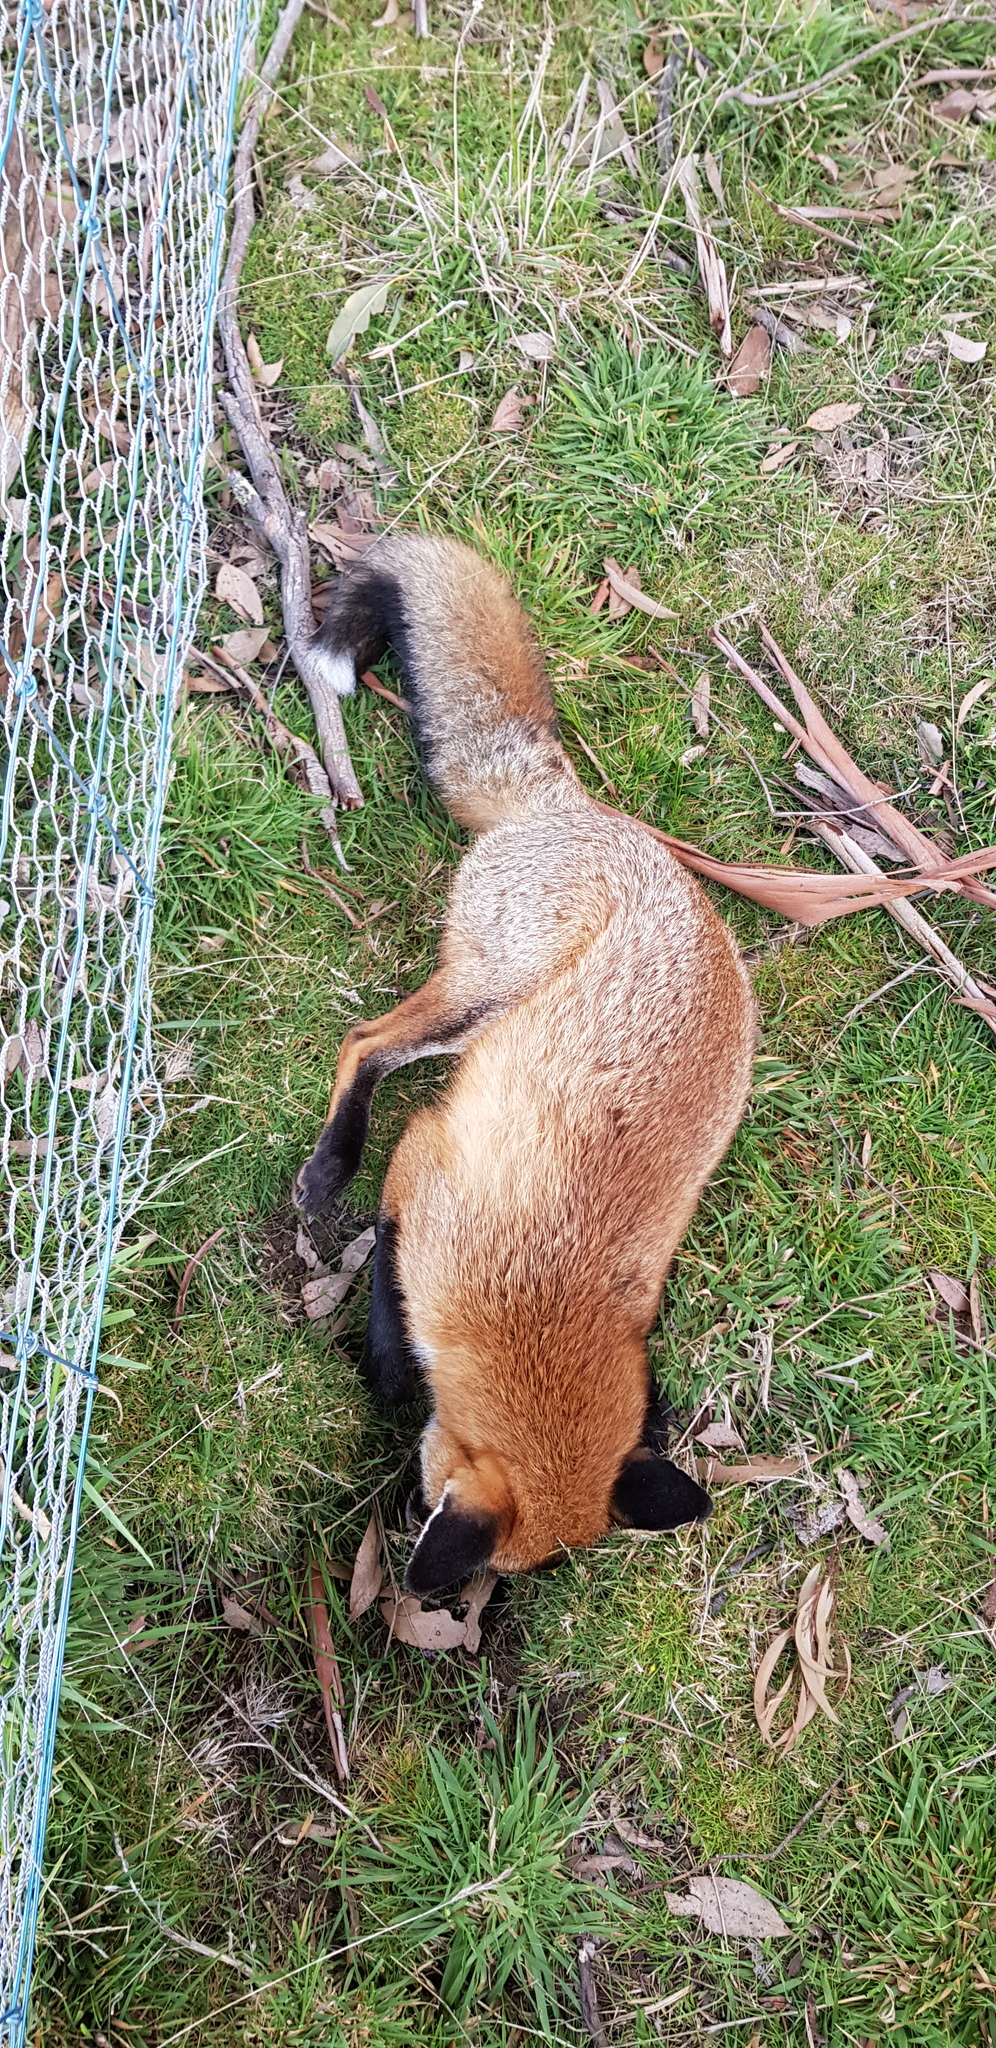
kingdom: Animalia
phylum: Chordata
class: Mammalia
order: Carnivora
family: Canidae
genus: Vulpes
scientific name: Vulpes vulpes
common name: Red fox
